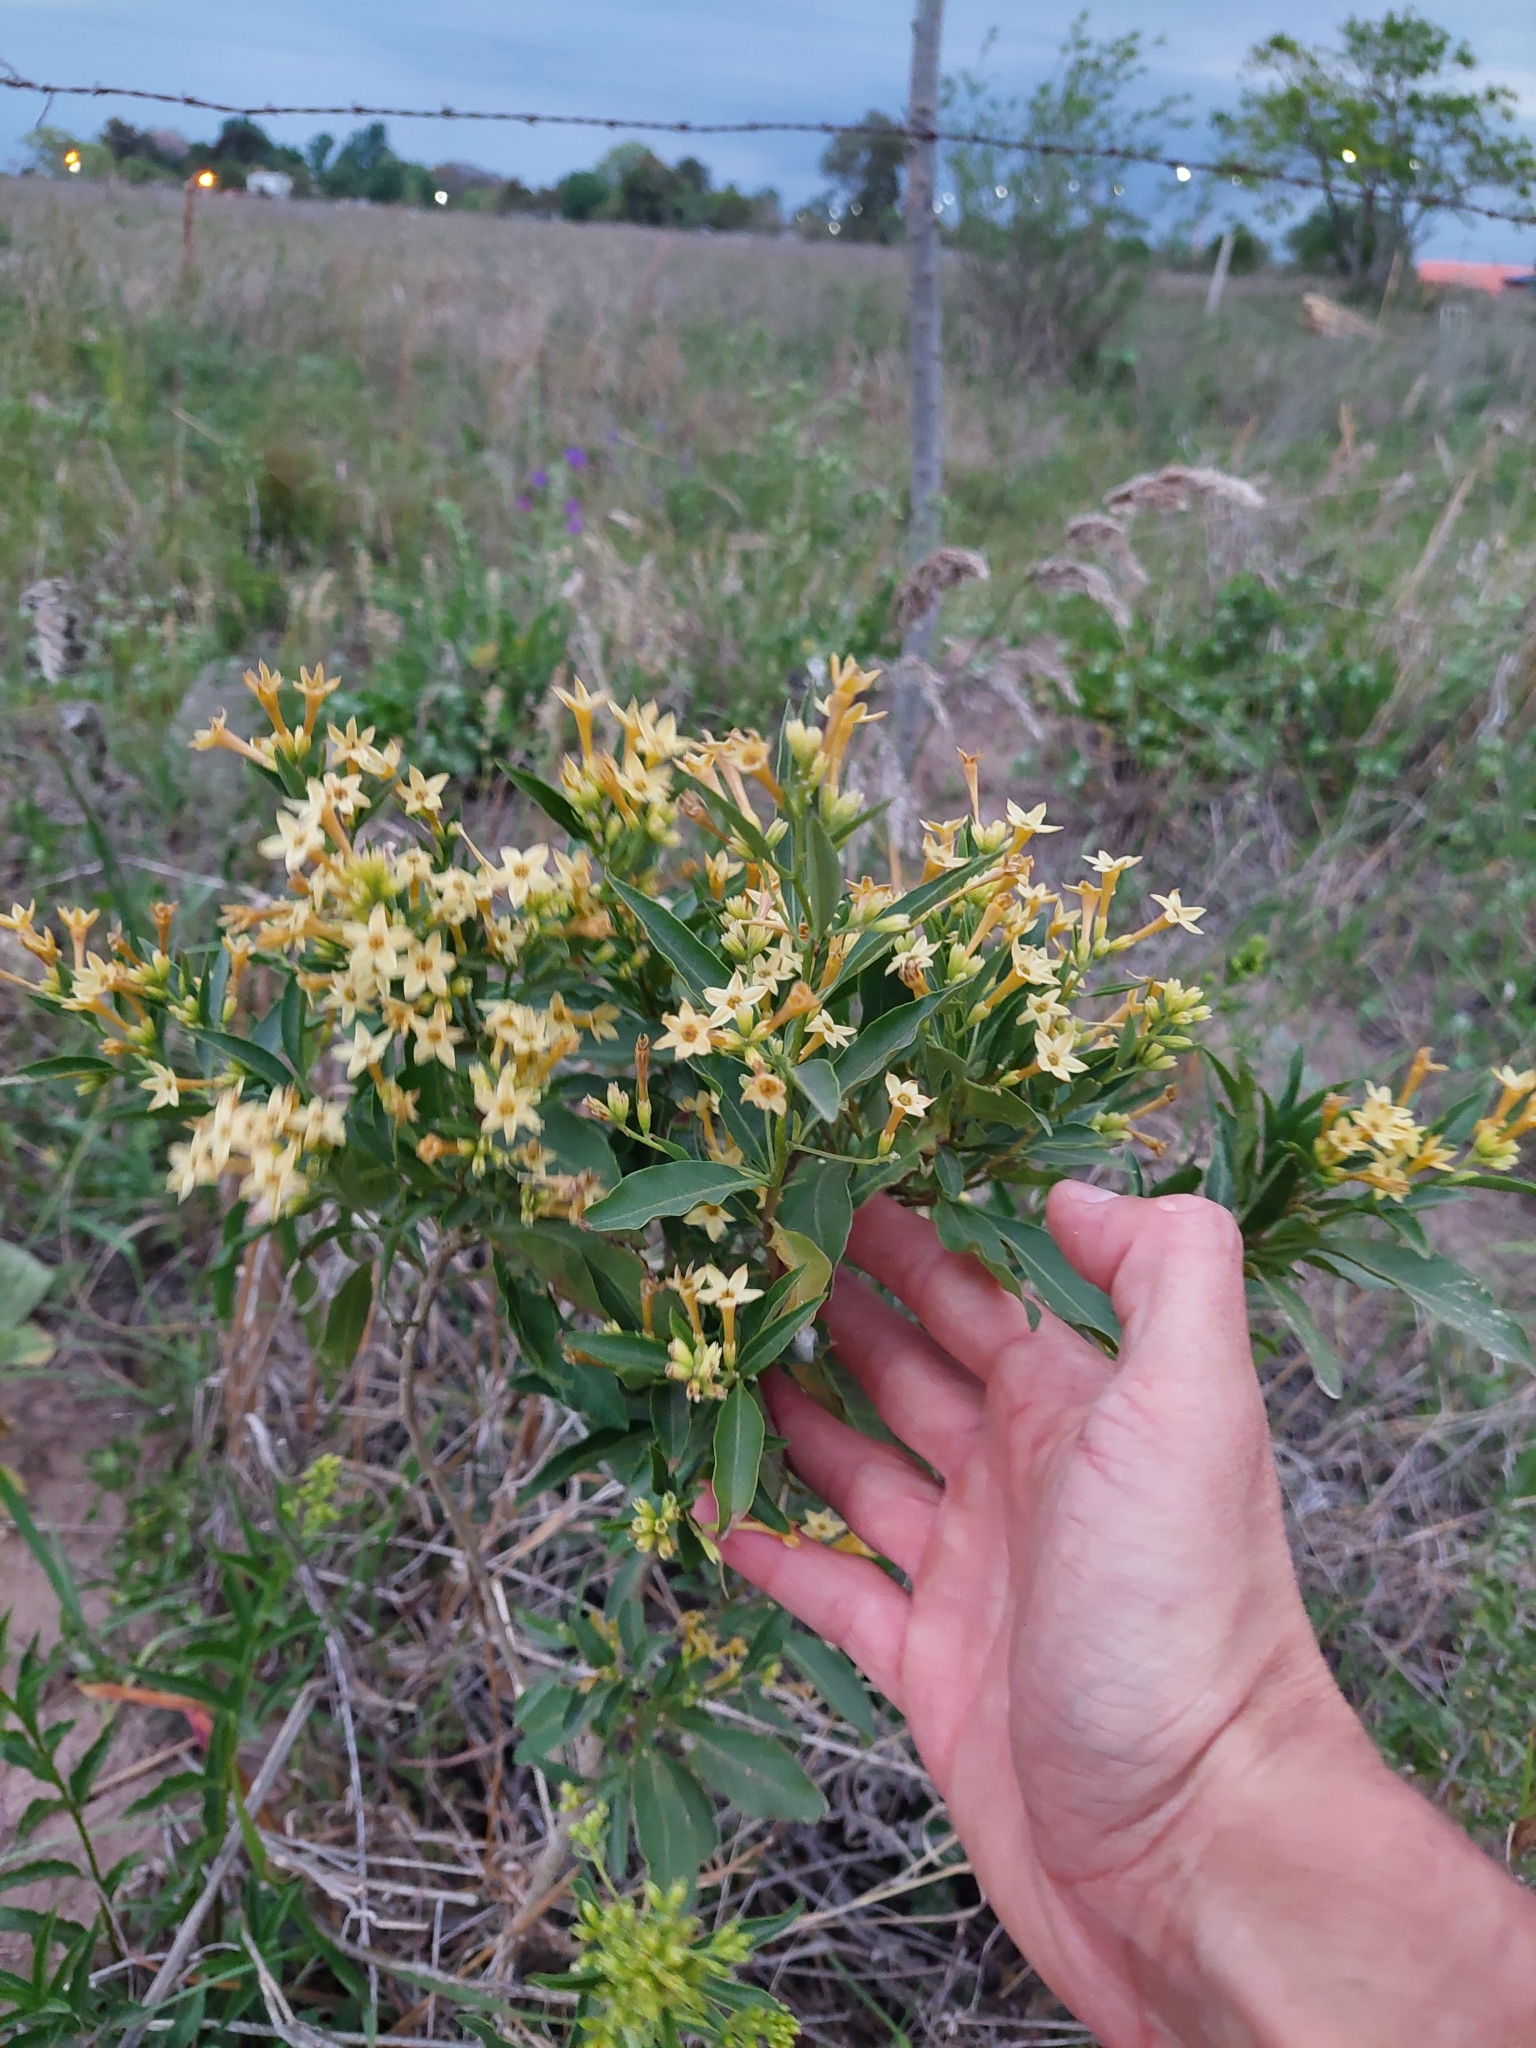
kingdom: Plantae
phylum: Tracheophyta
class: Magnoliopsida
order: Solanales
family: Solanaceae
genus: Cestrum
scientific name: Cestrum parqui
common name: Chilean cestrum
